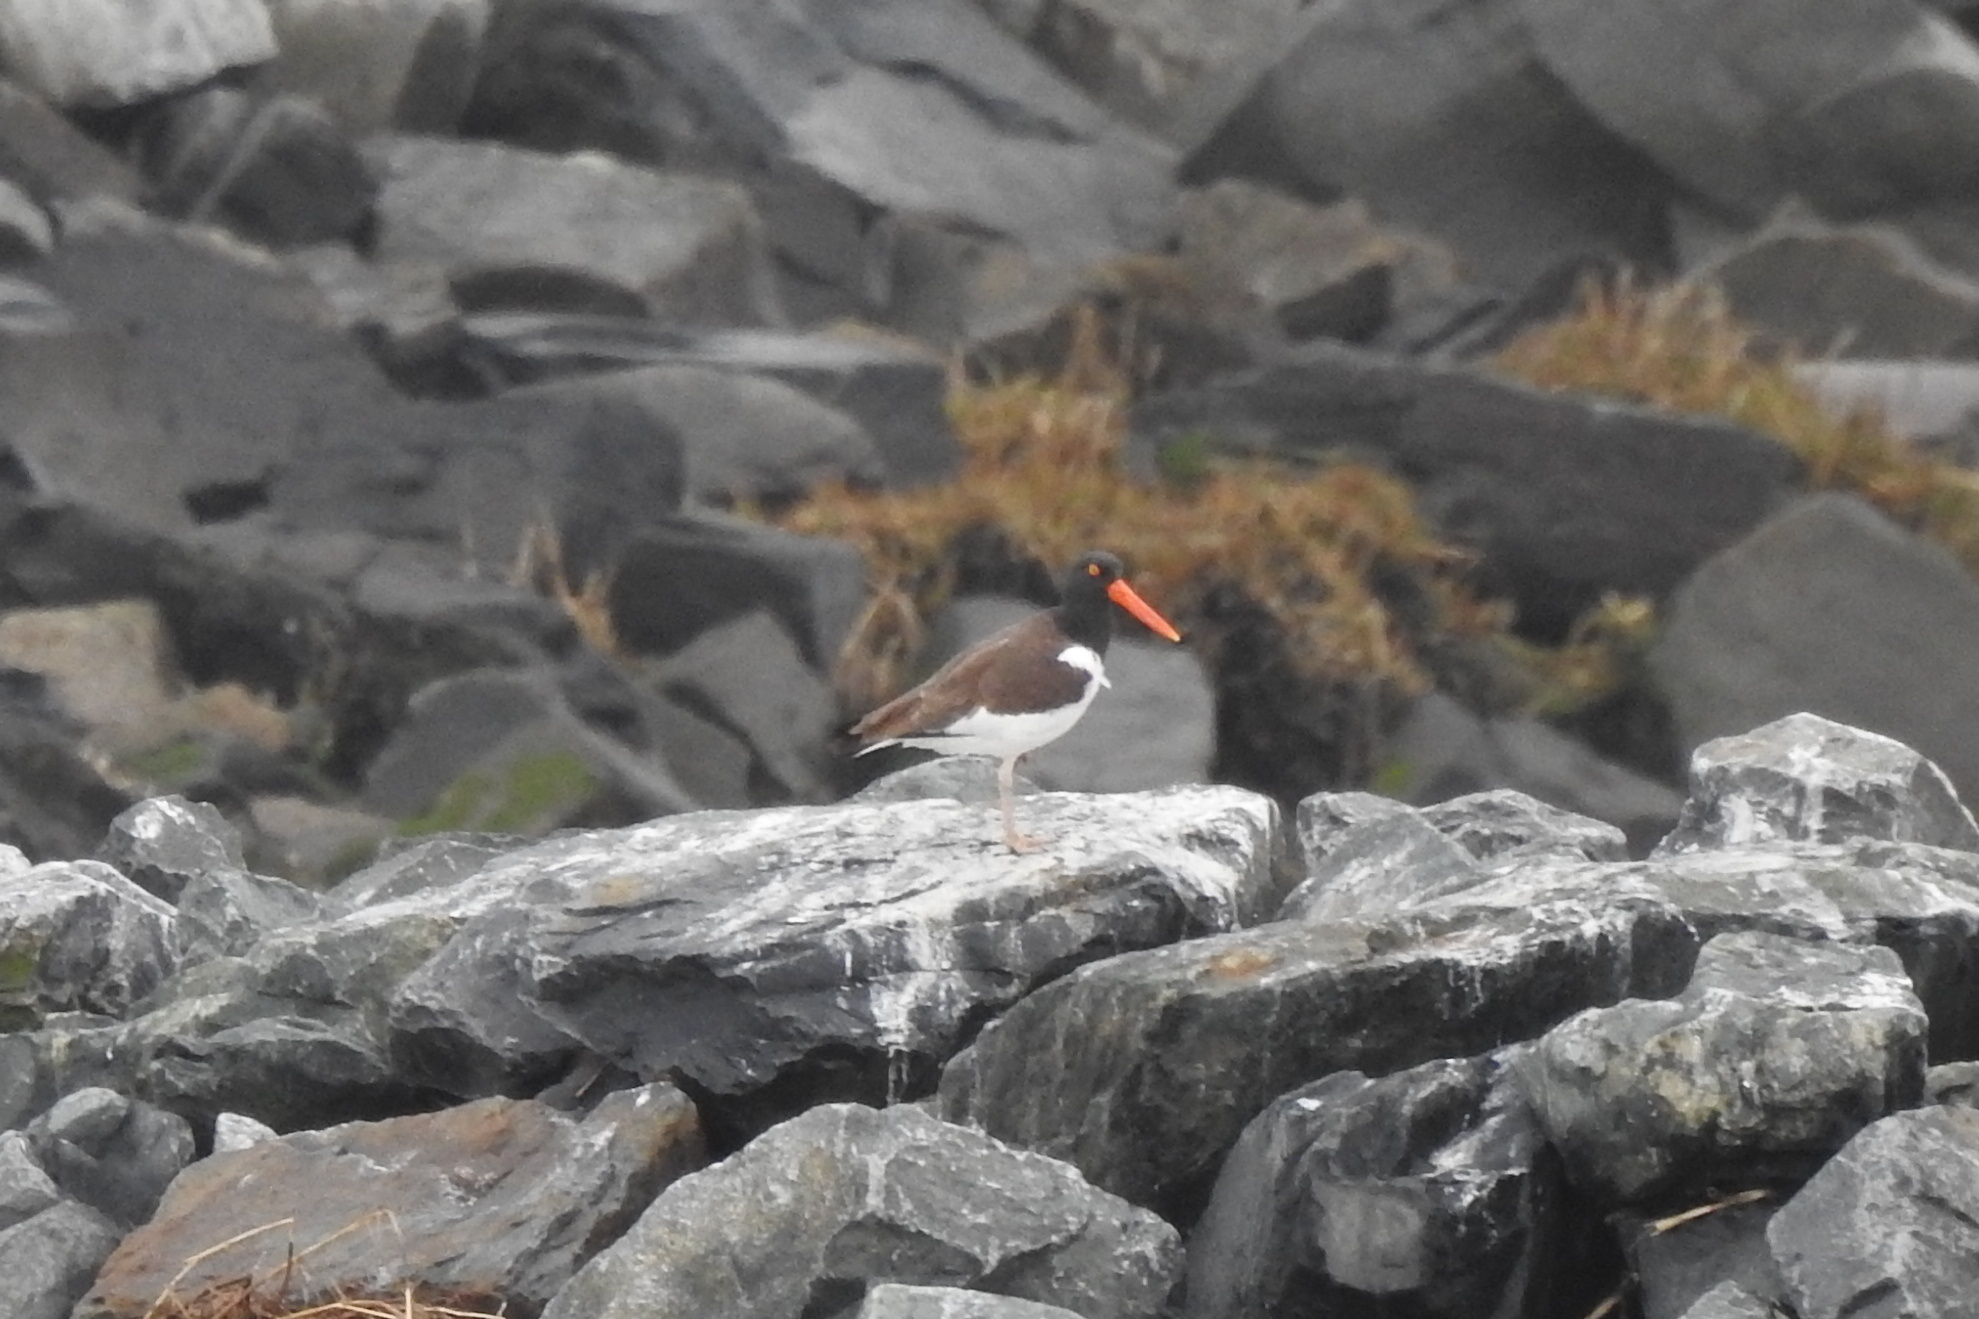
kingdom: Animalia
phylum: Chordata
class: Aves
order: Charadriiformes
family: Haematopodidae
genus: Haematopus
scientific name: Haematopus palliatus
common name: American oystercatcher
